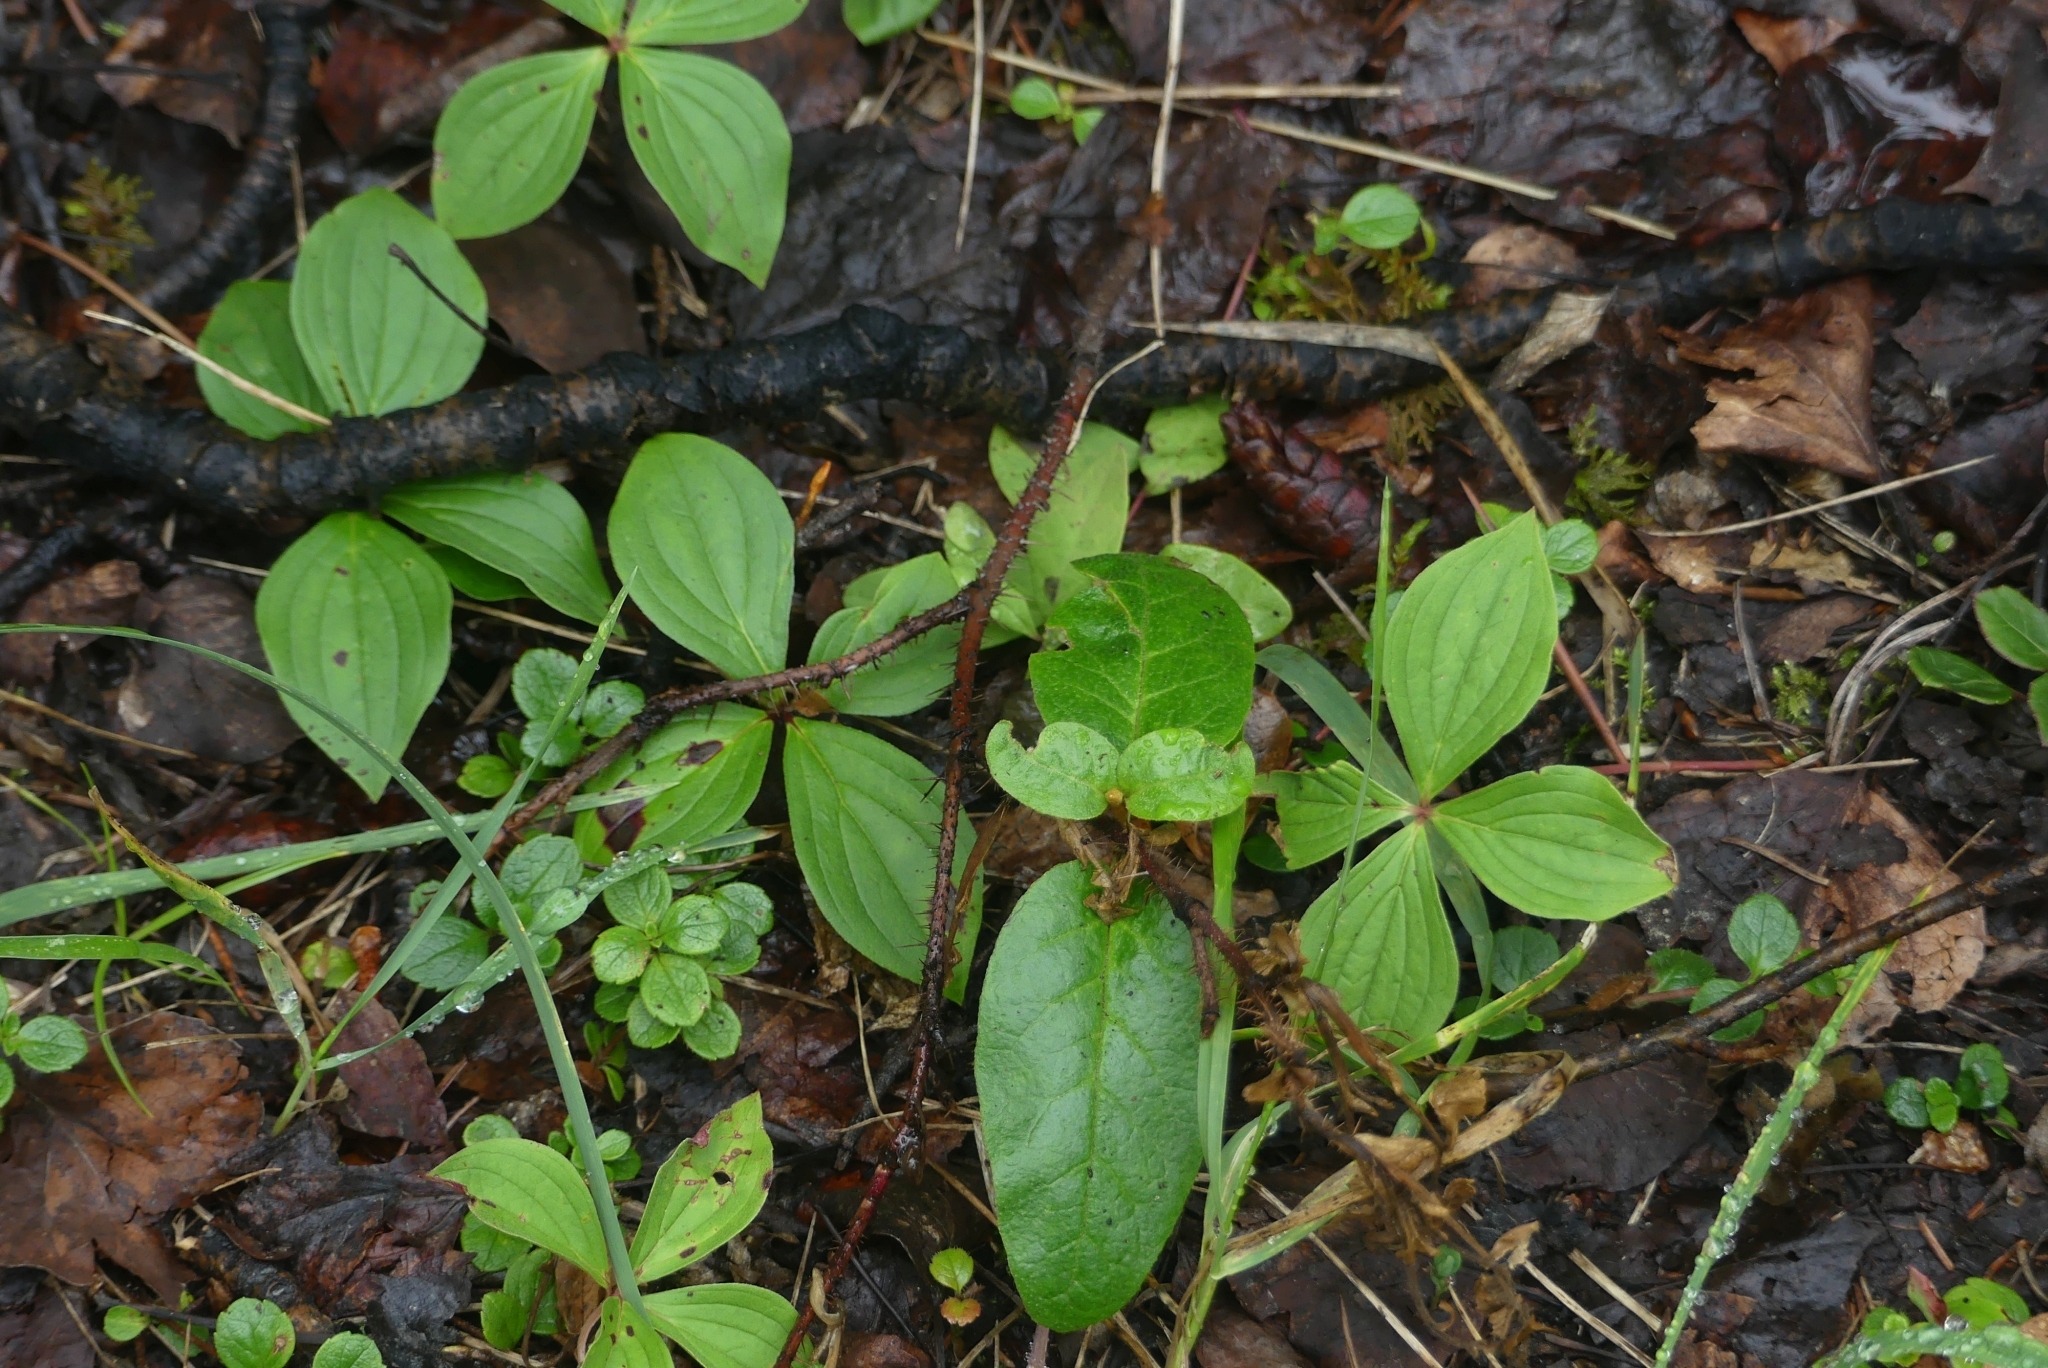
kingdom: Plantae
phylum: Tracheophyta
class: Magnoliopsida
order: Cornales
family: Cornaceae
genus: Cornus
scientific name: Cornus canadensis
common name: Creeping dogwood
